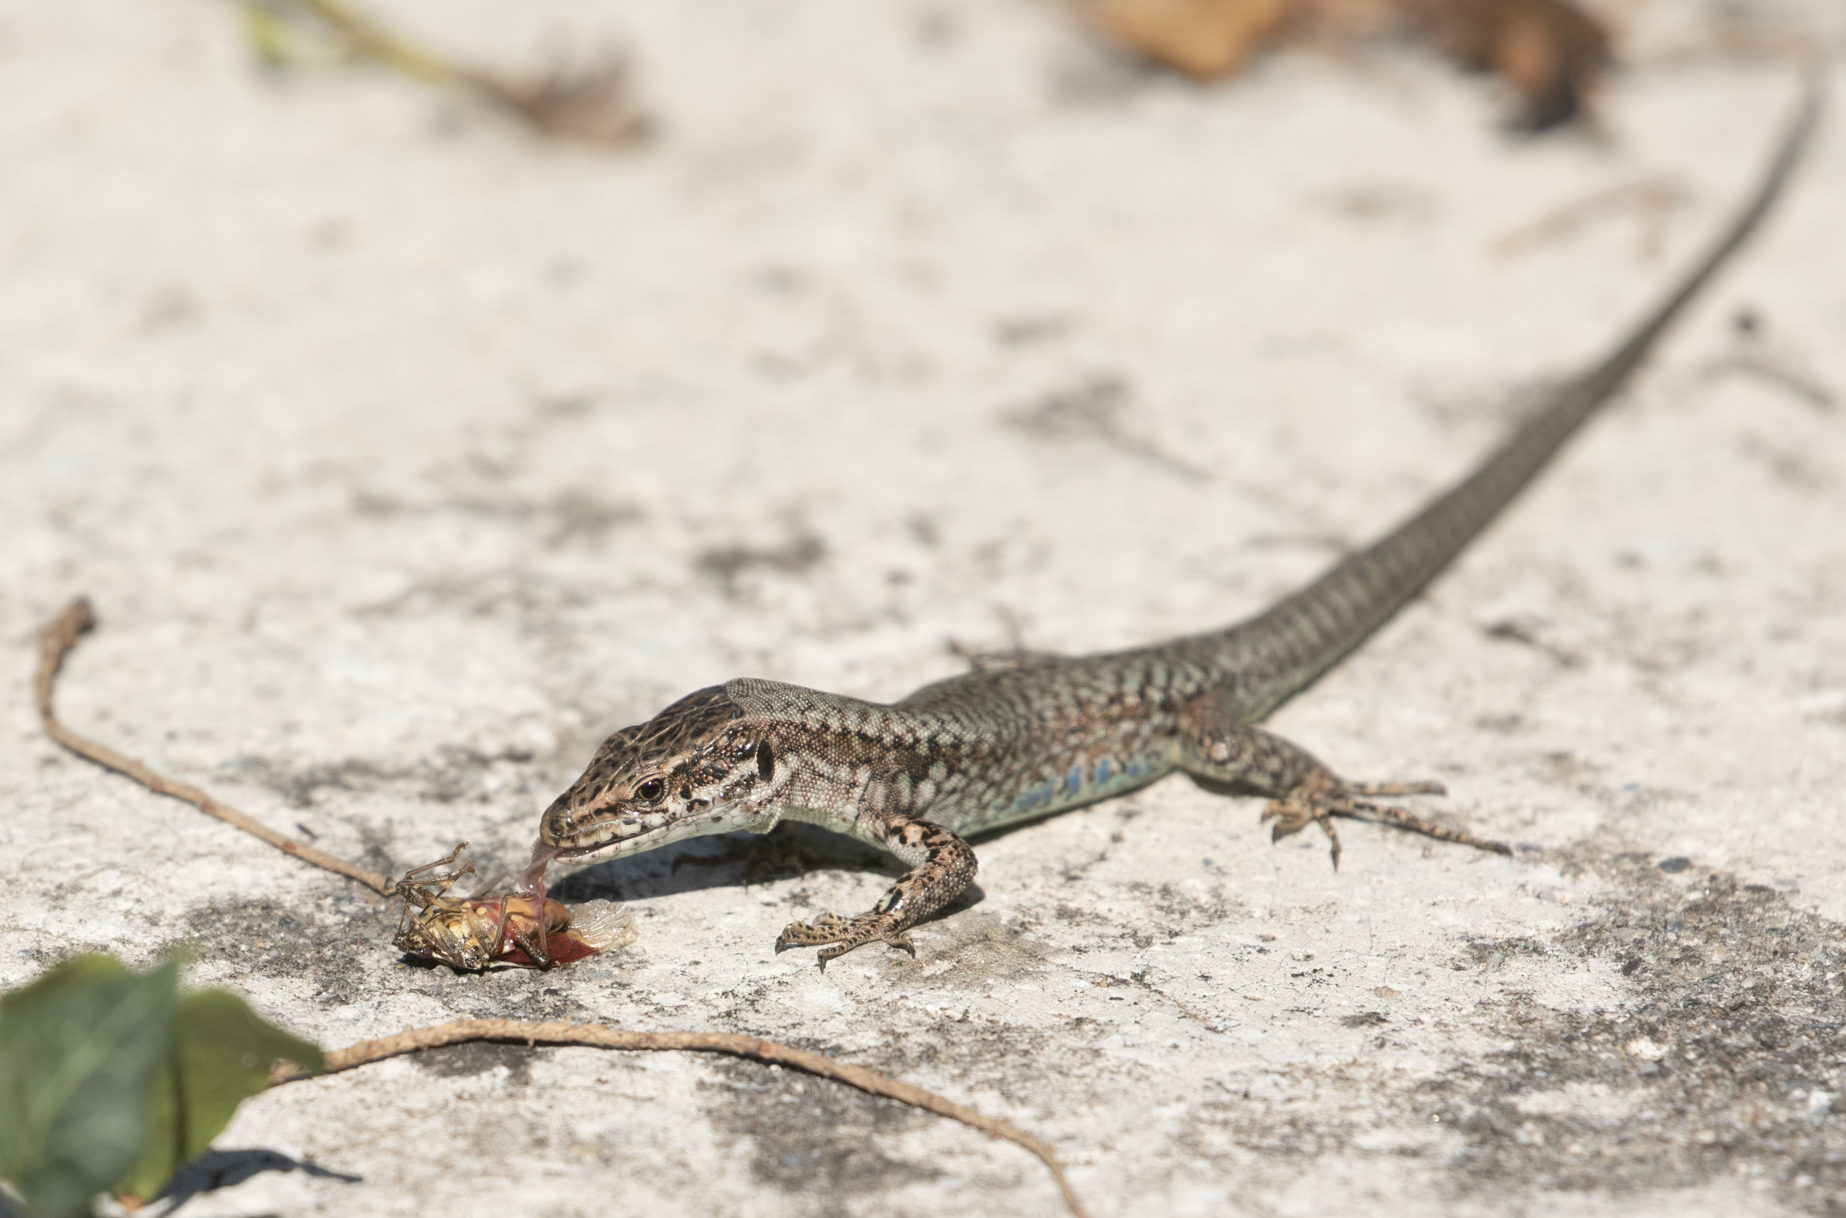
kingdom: Animalia
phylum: Chordata
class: Squamata
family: Lacertidae
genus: Podarcis
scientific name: Podarcis muralis
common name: Common wall lizard
